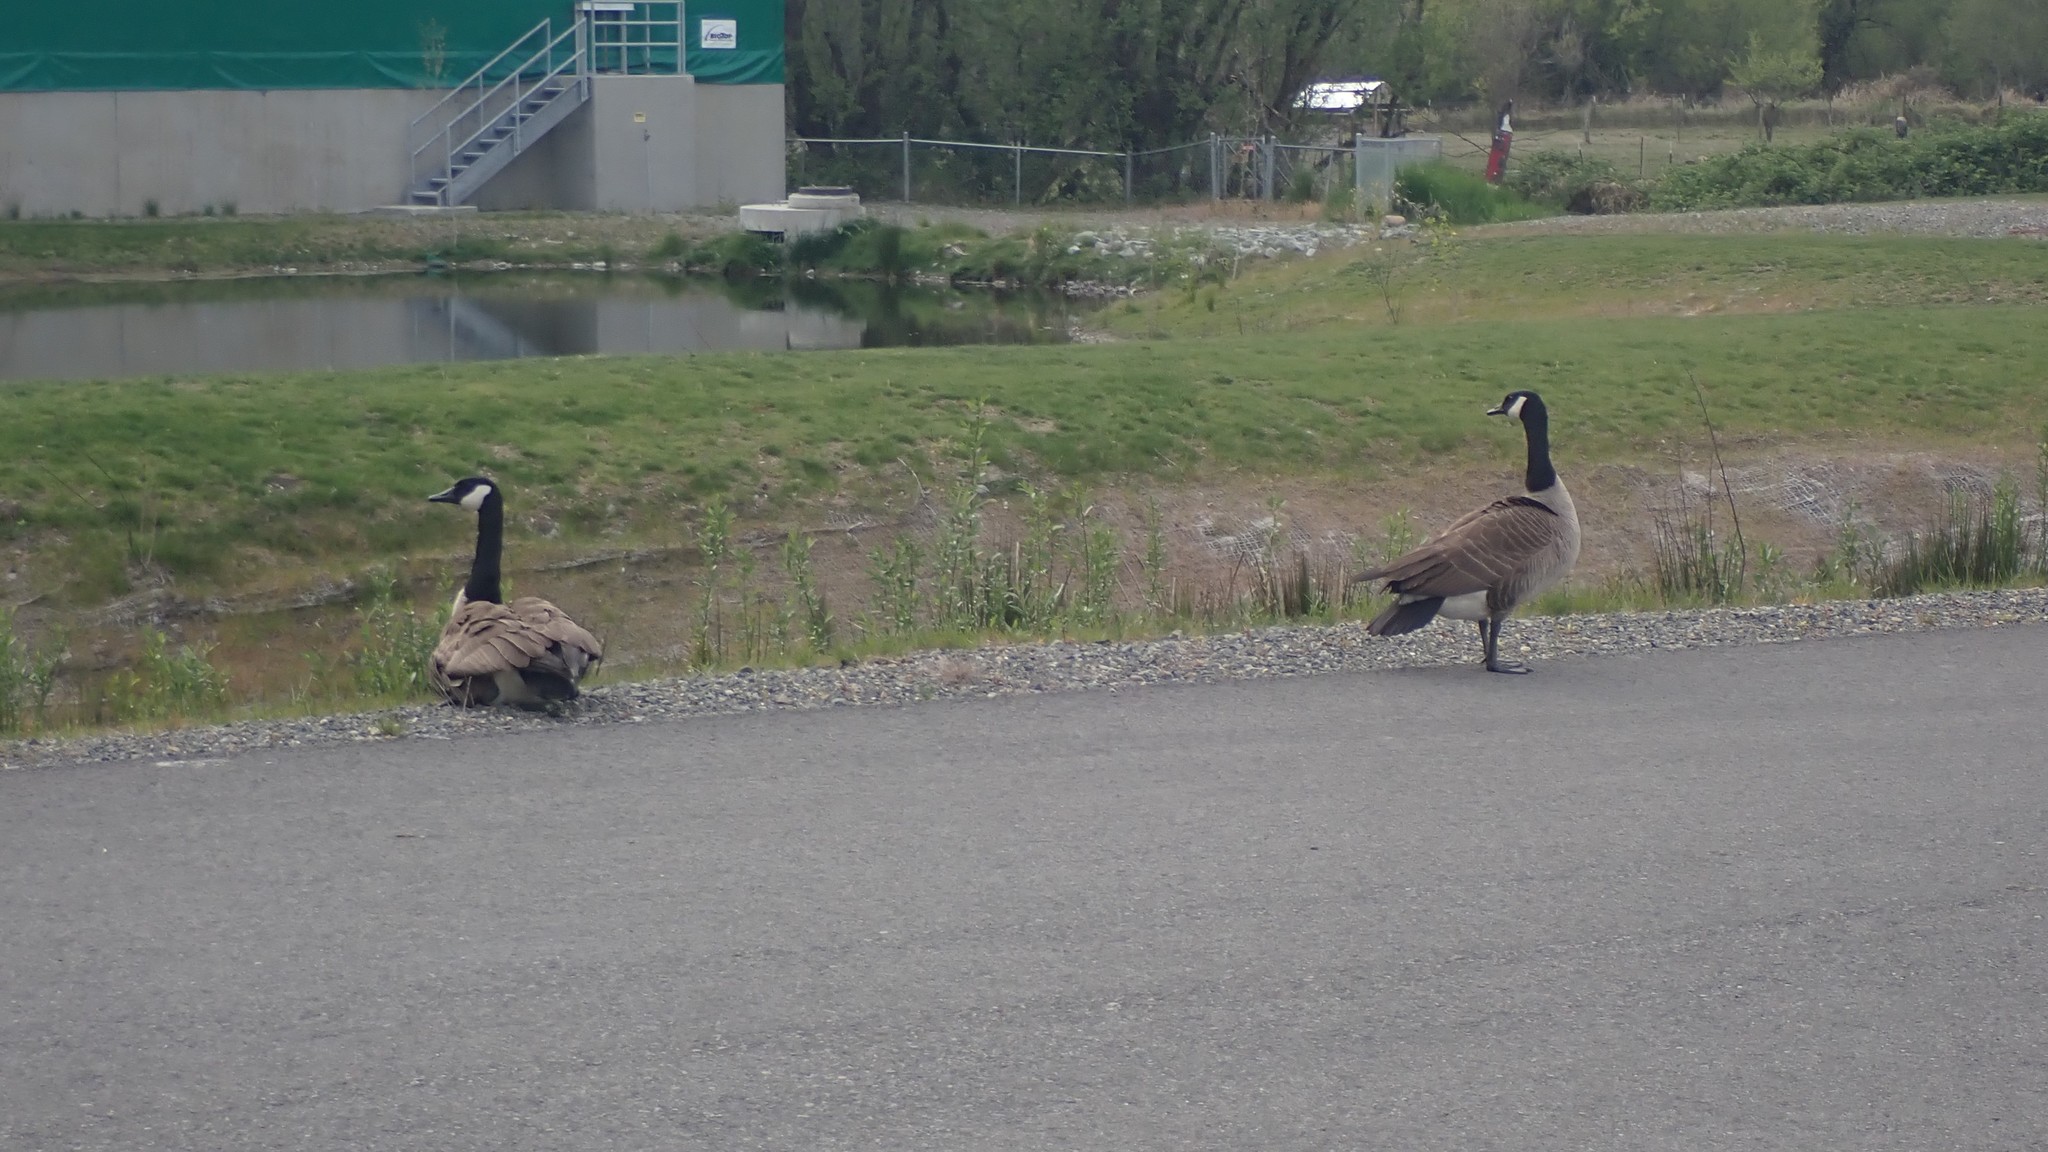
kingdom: Animalia
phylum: Chordata
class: Aves
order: Anseriformes
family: Anatidae
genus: Branta
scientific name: Branta canadensis
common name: Canada goose
